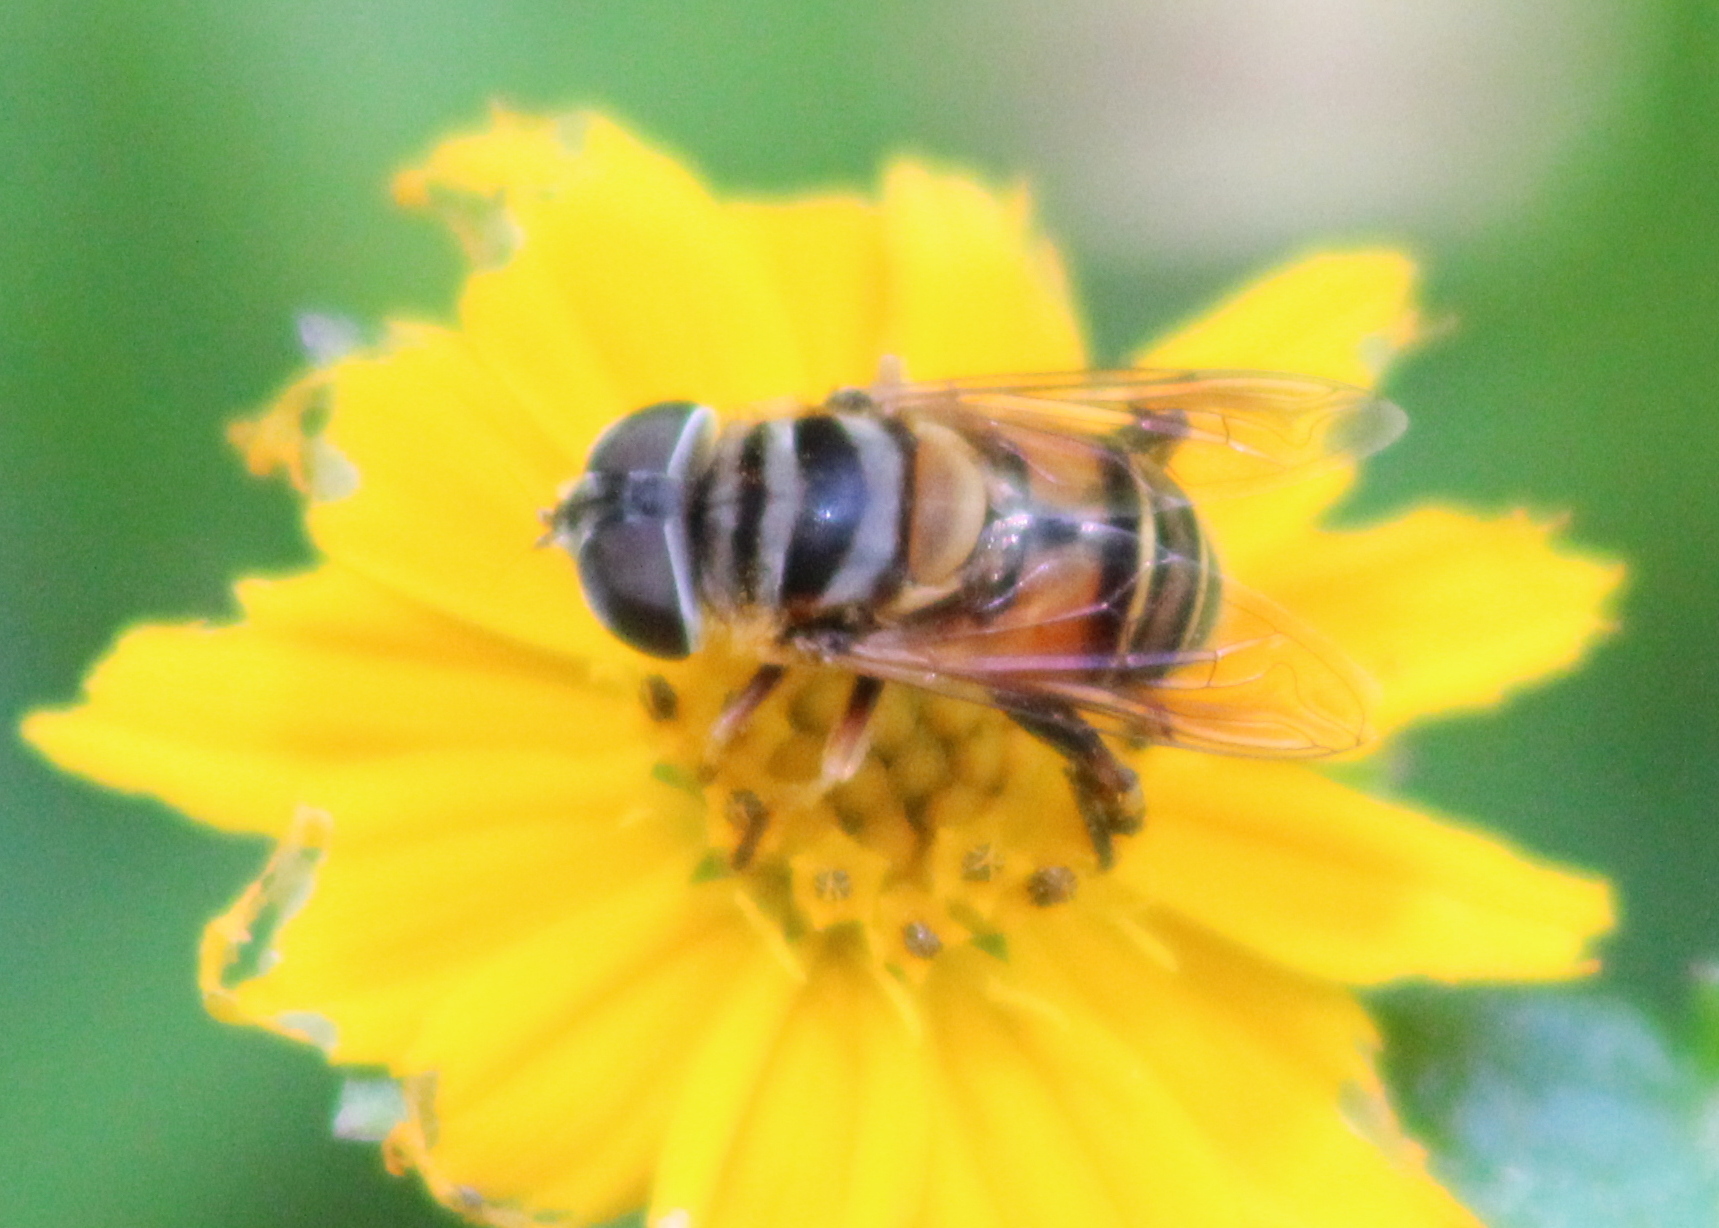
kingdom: Animalia
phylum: Arthropoda
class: Insecta
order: Diptera
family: Syrphidae
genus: Palpada
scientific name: Palpada vinetorum
